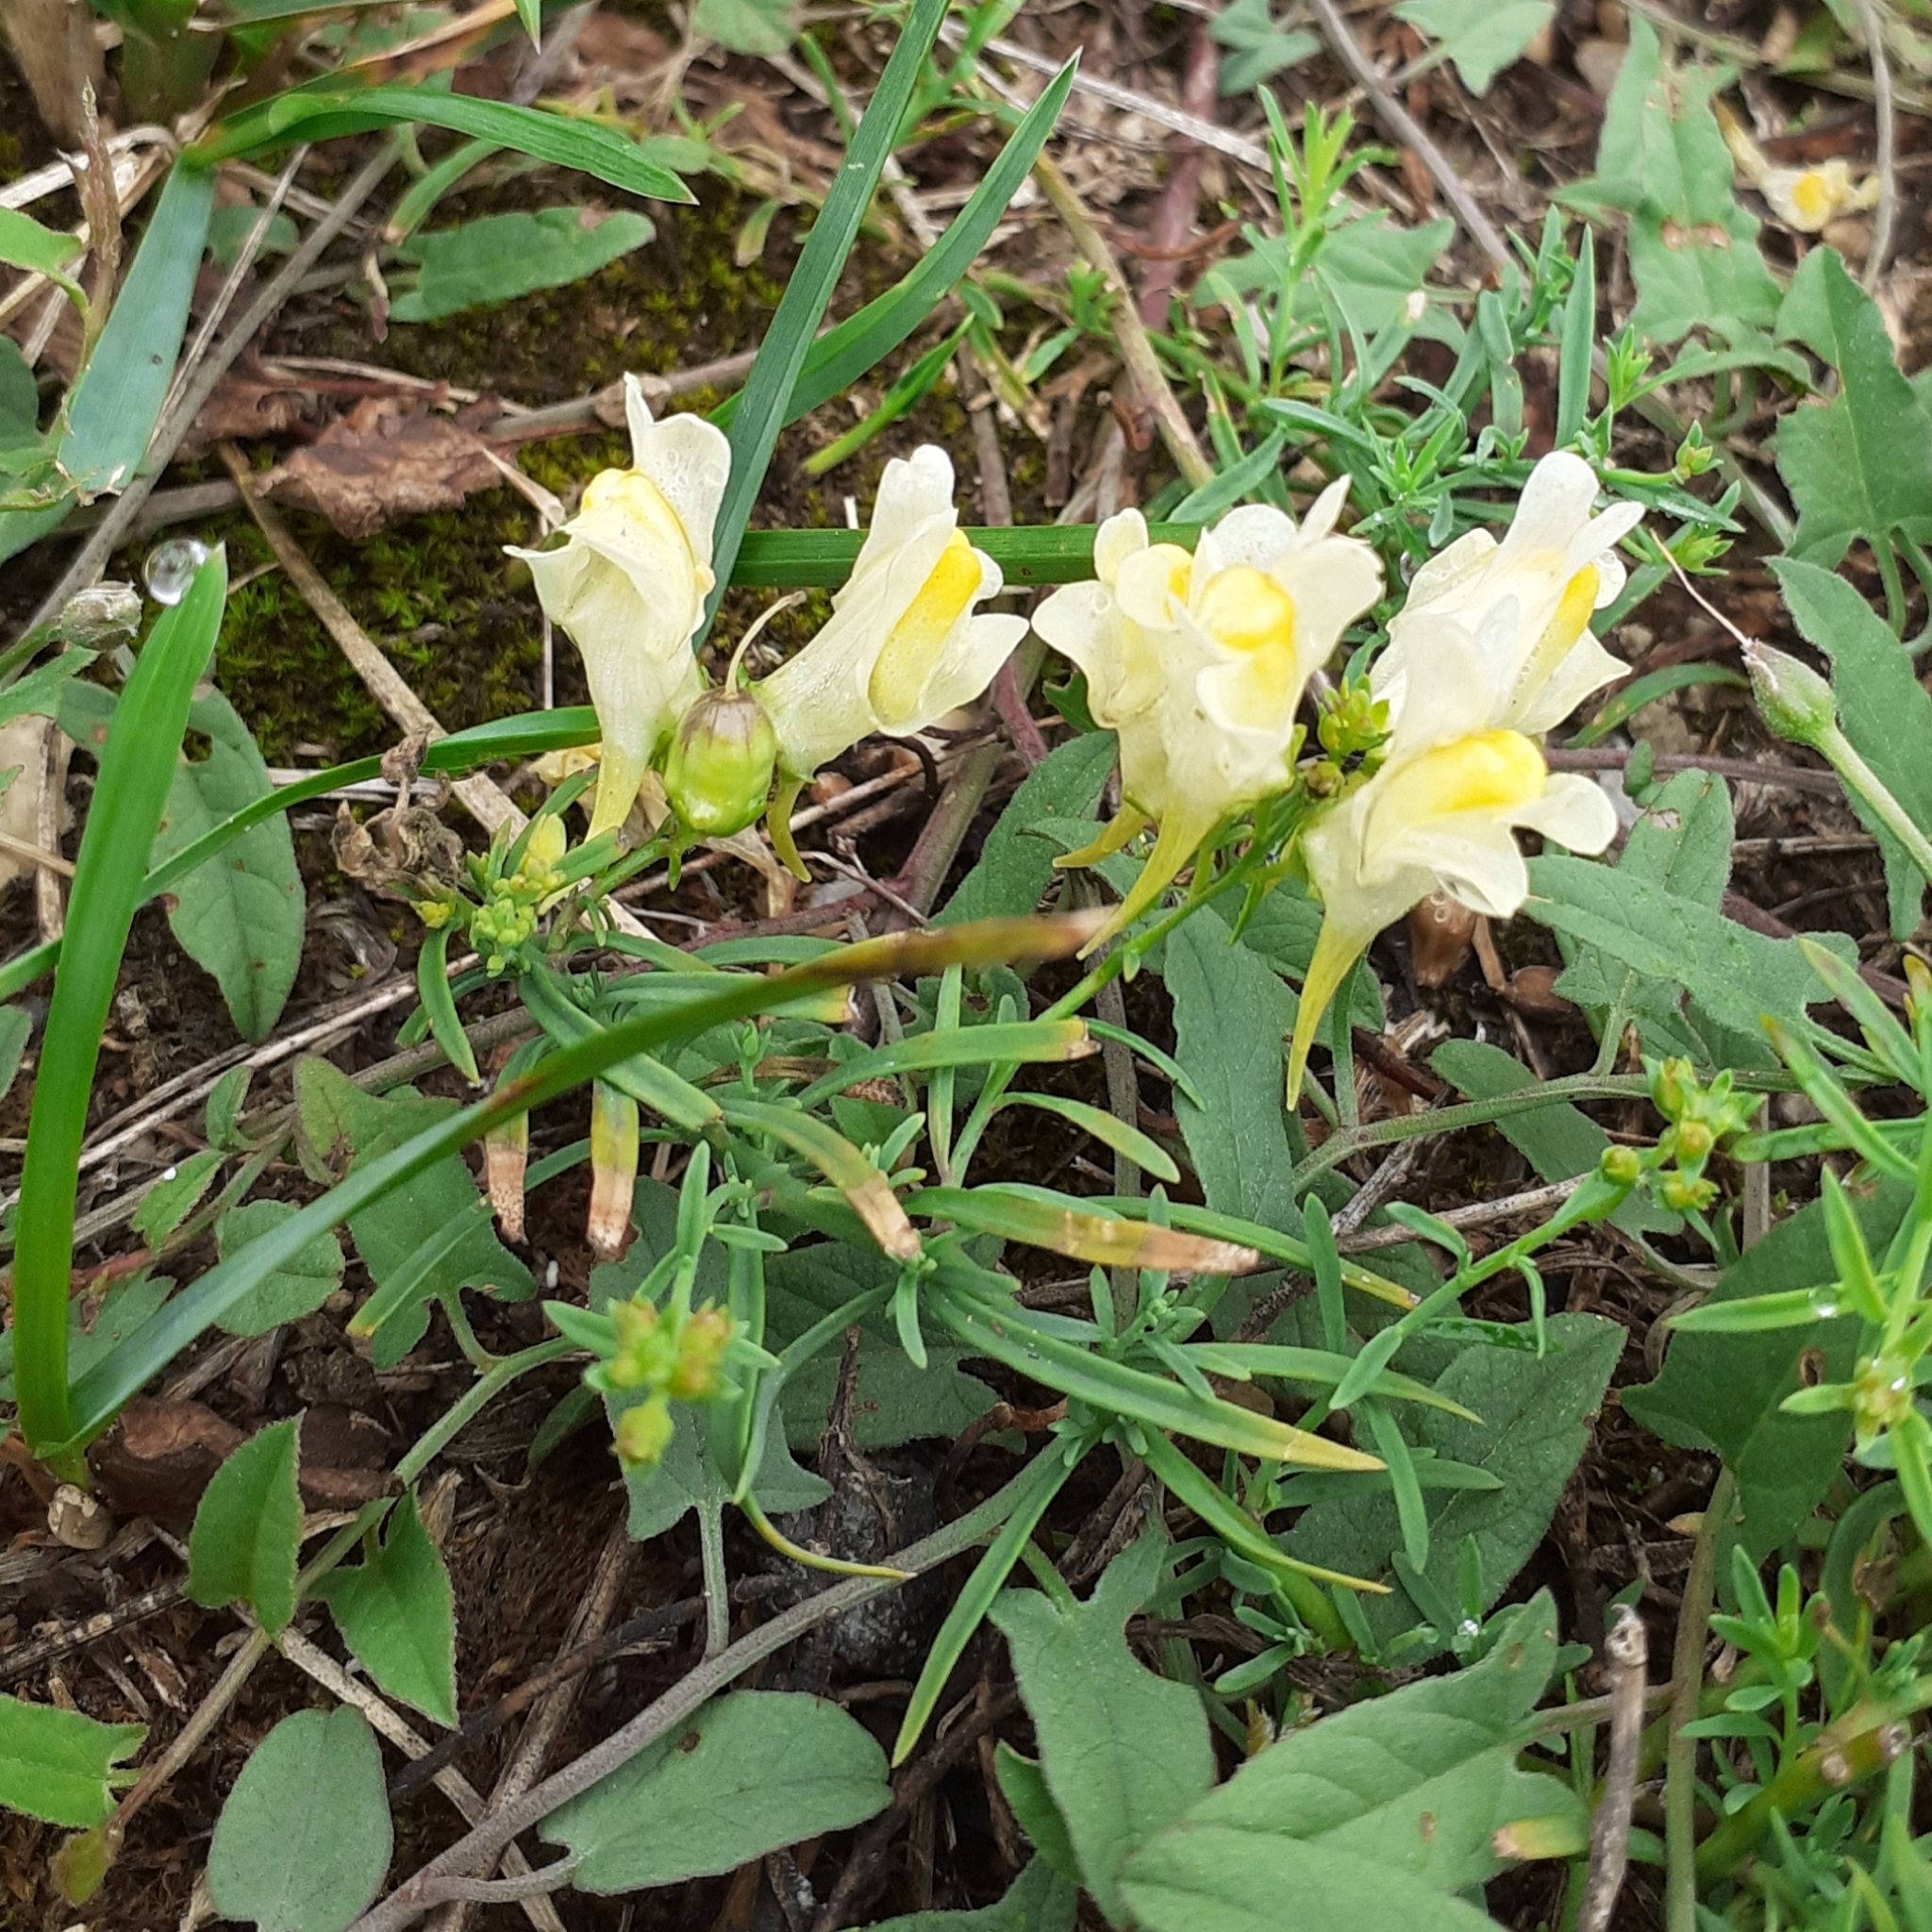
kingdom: Plantae
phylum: Tracheophyta
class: Magnoliopsida
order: Lamiales
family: Plantaginaceae
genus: Linaria
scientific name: Linaria vulgaris
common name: Butter and eggs
